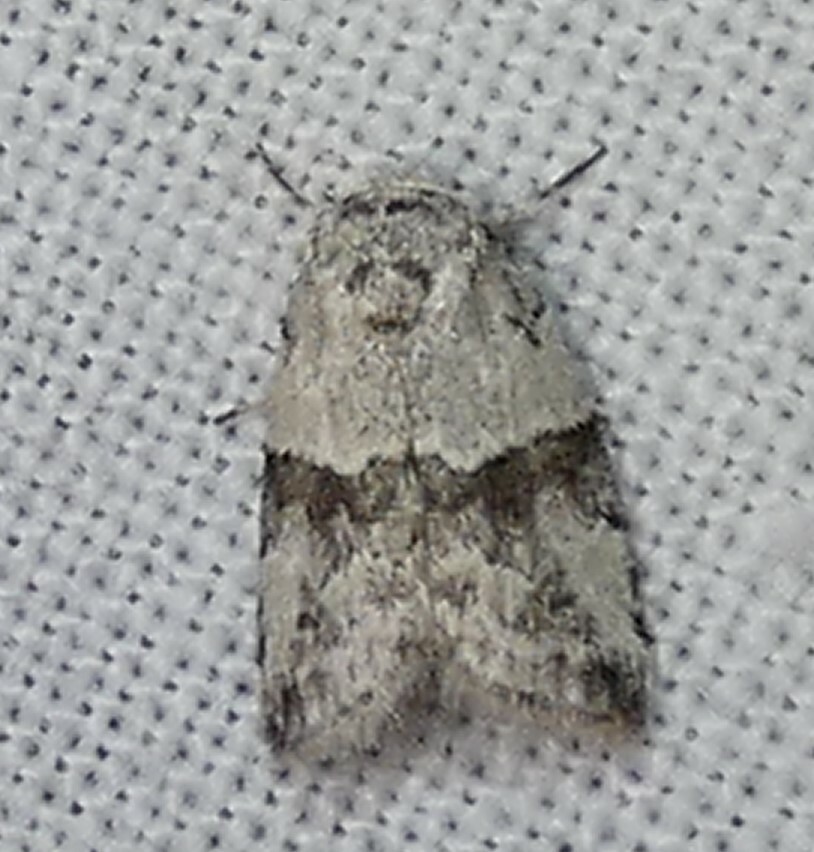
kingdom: Animalia
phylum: Arthropoda
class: Insecta
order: Lepidoptera
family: Nolidae
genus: Afrida
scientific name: Afrida ydatodes
